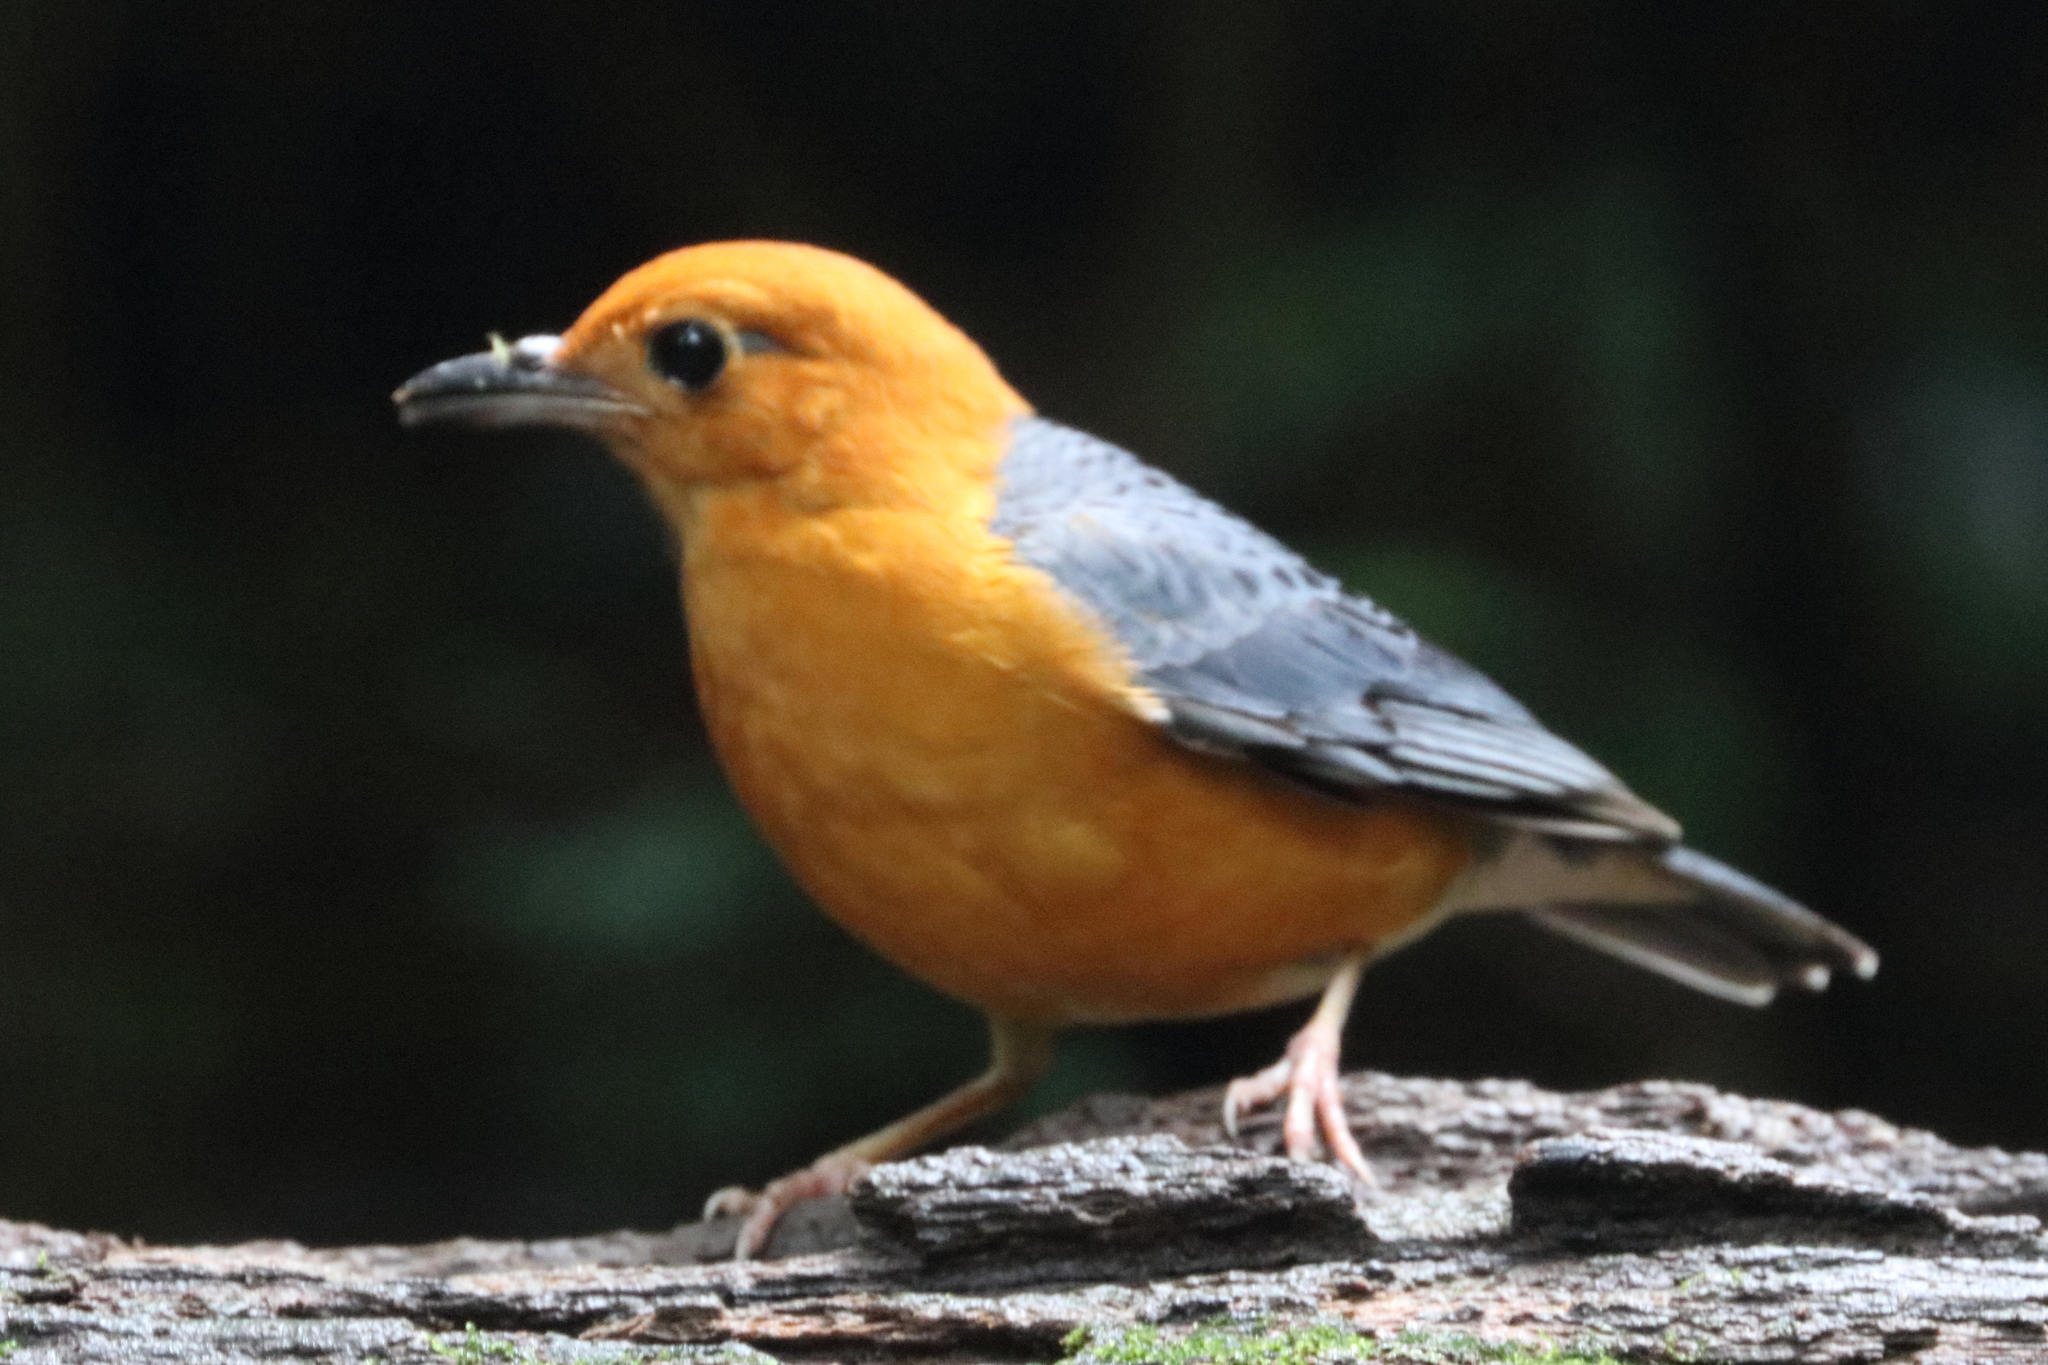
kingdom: Animalia
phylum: Chordata
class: Aves
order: Passeriformes
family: Turdidae
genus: Geokichla
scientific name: Geokichla citrina
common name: Orange-headed thrush
